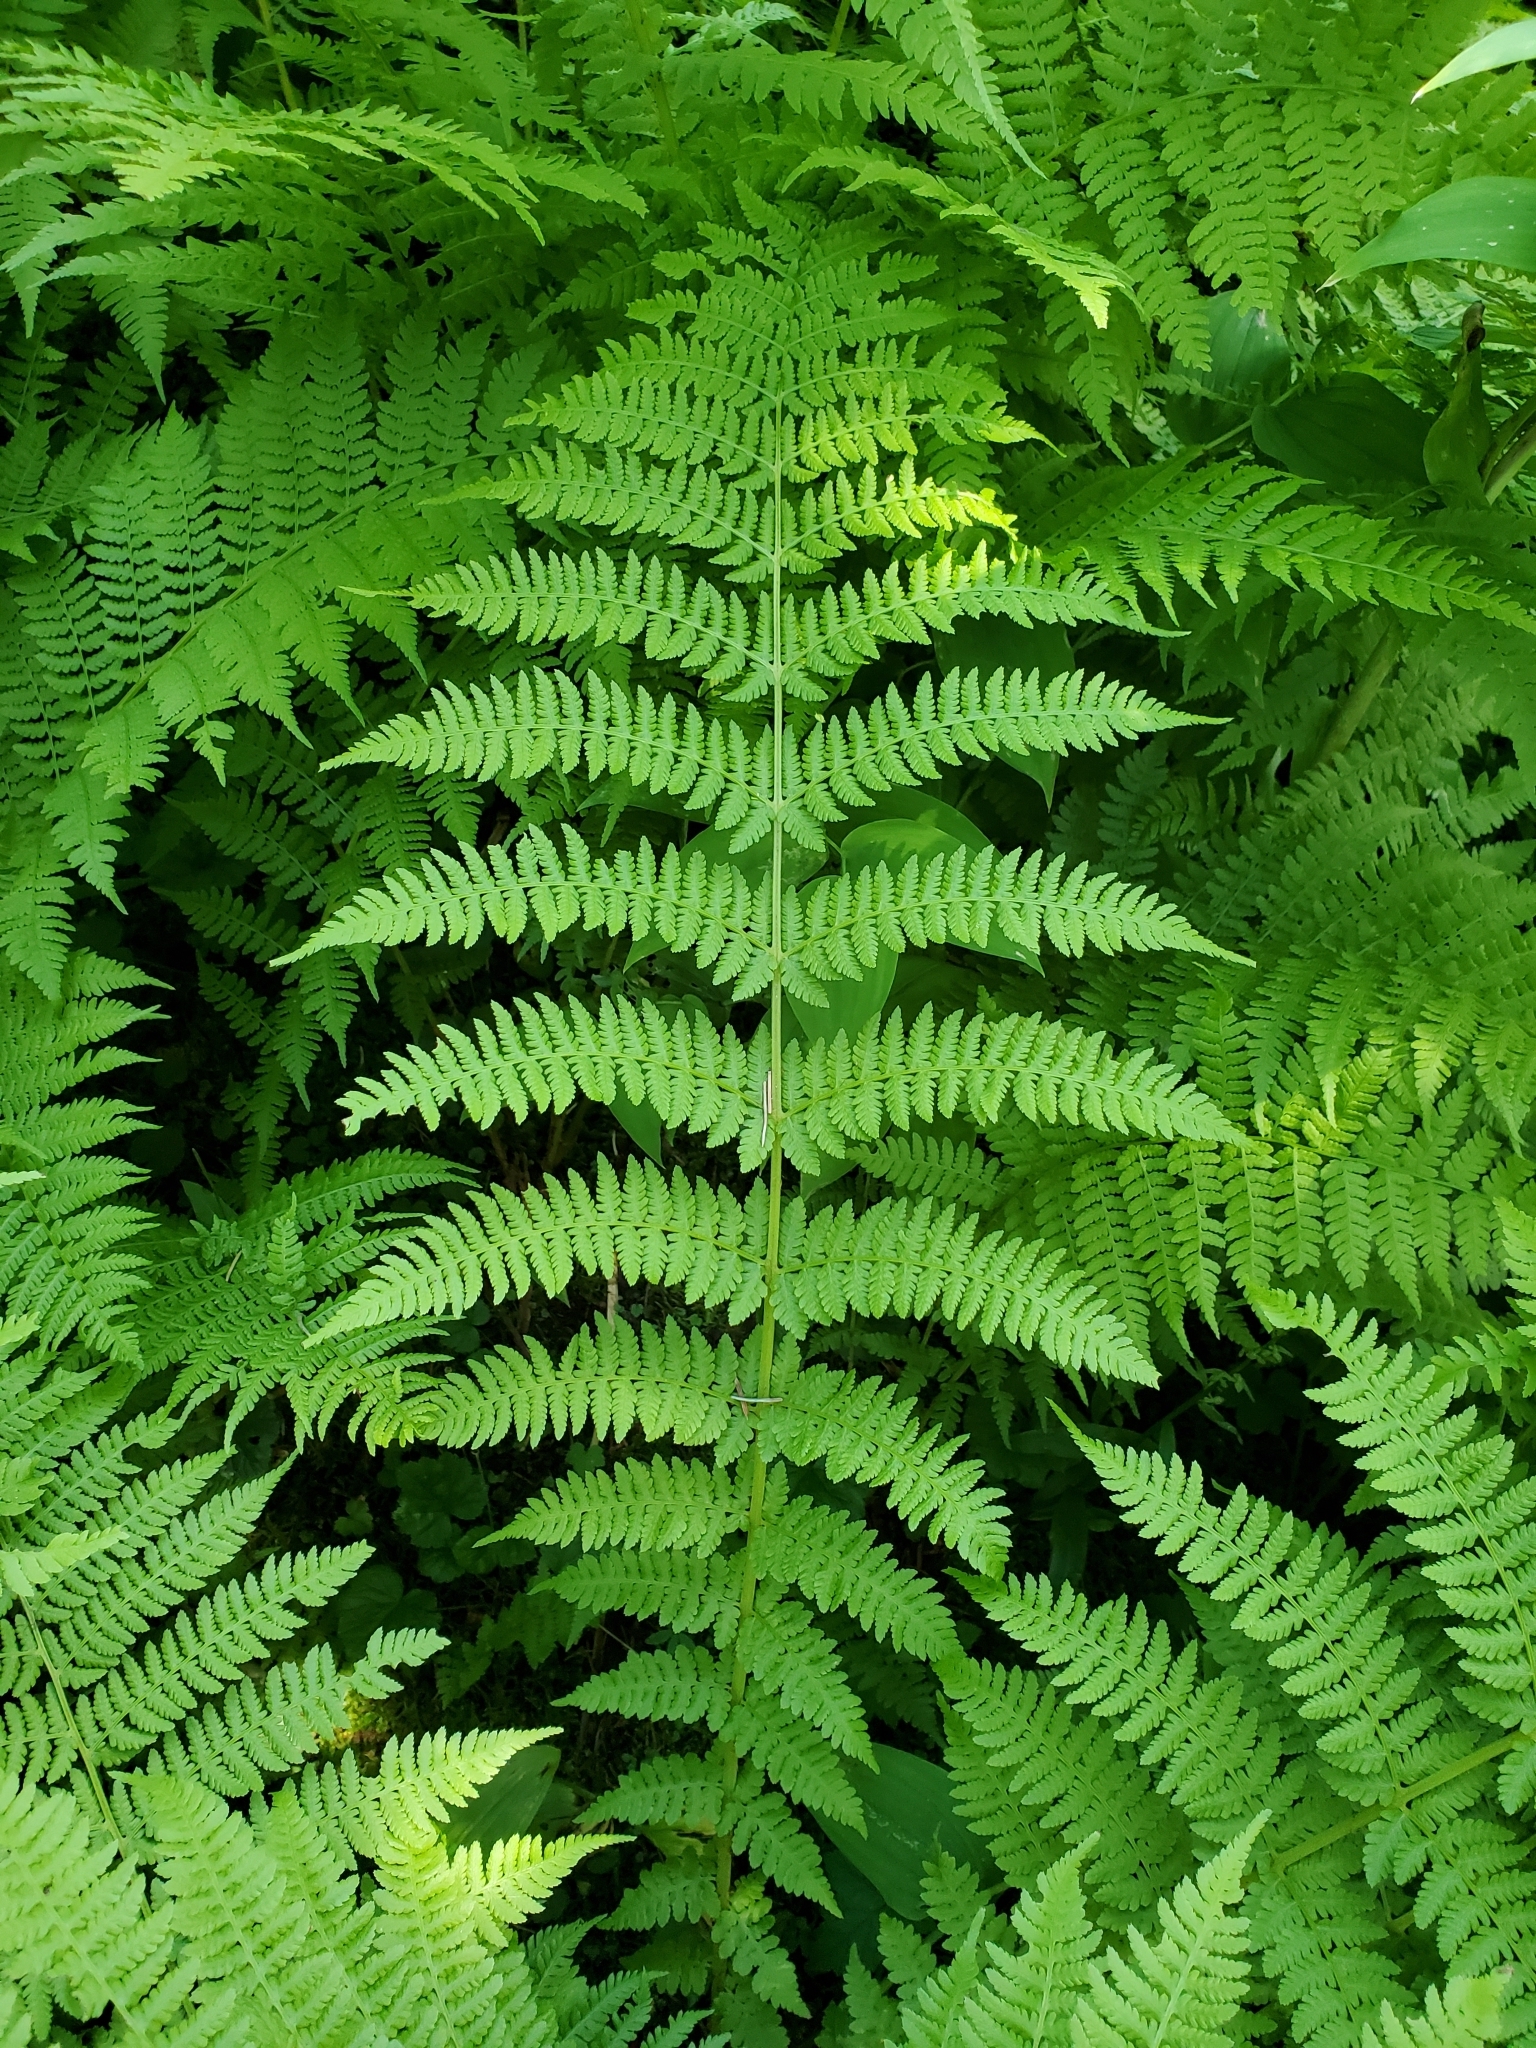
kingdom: Plantae
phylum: Tracheophyta
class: Polypodiopsida
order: Polypodiales
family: Athyriaceae
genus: Athyrium
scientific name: Athyrium cyclosorum
